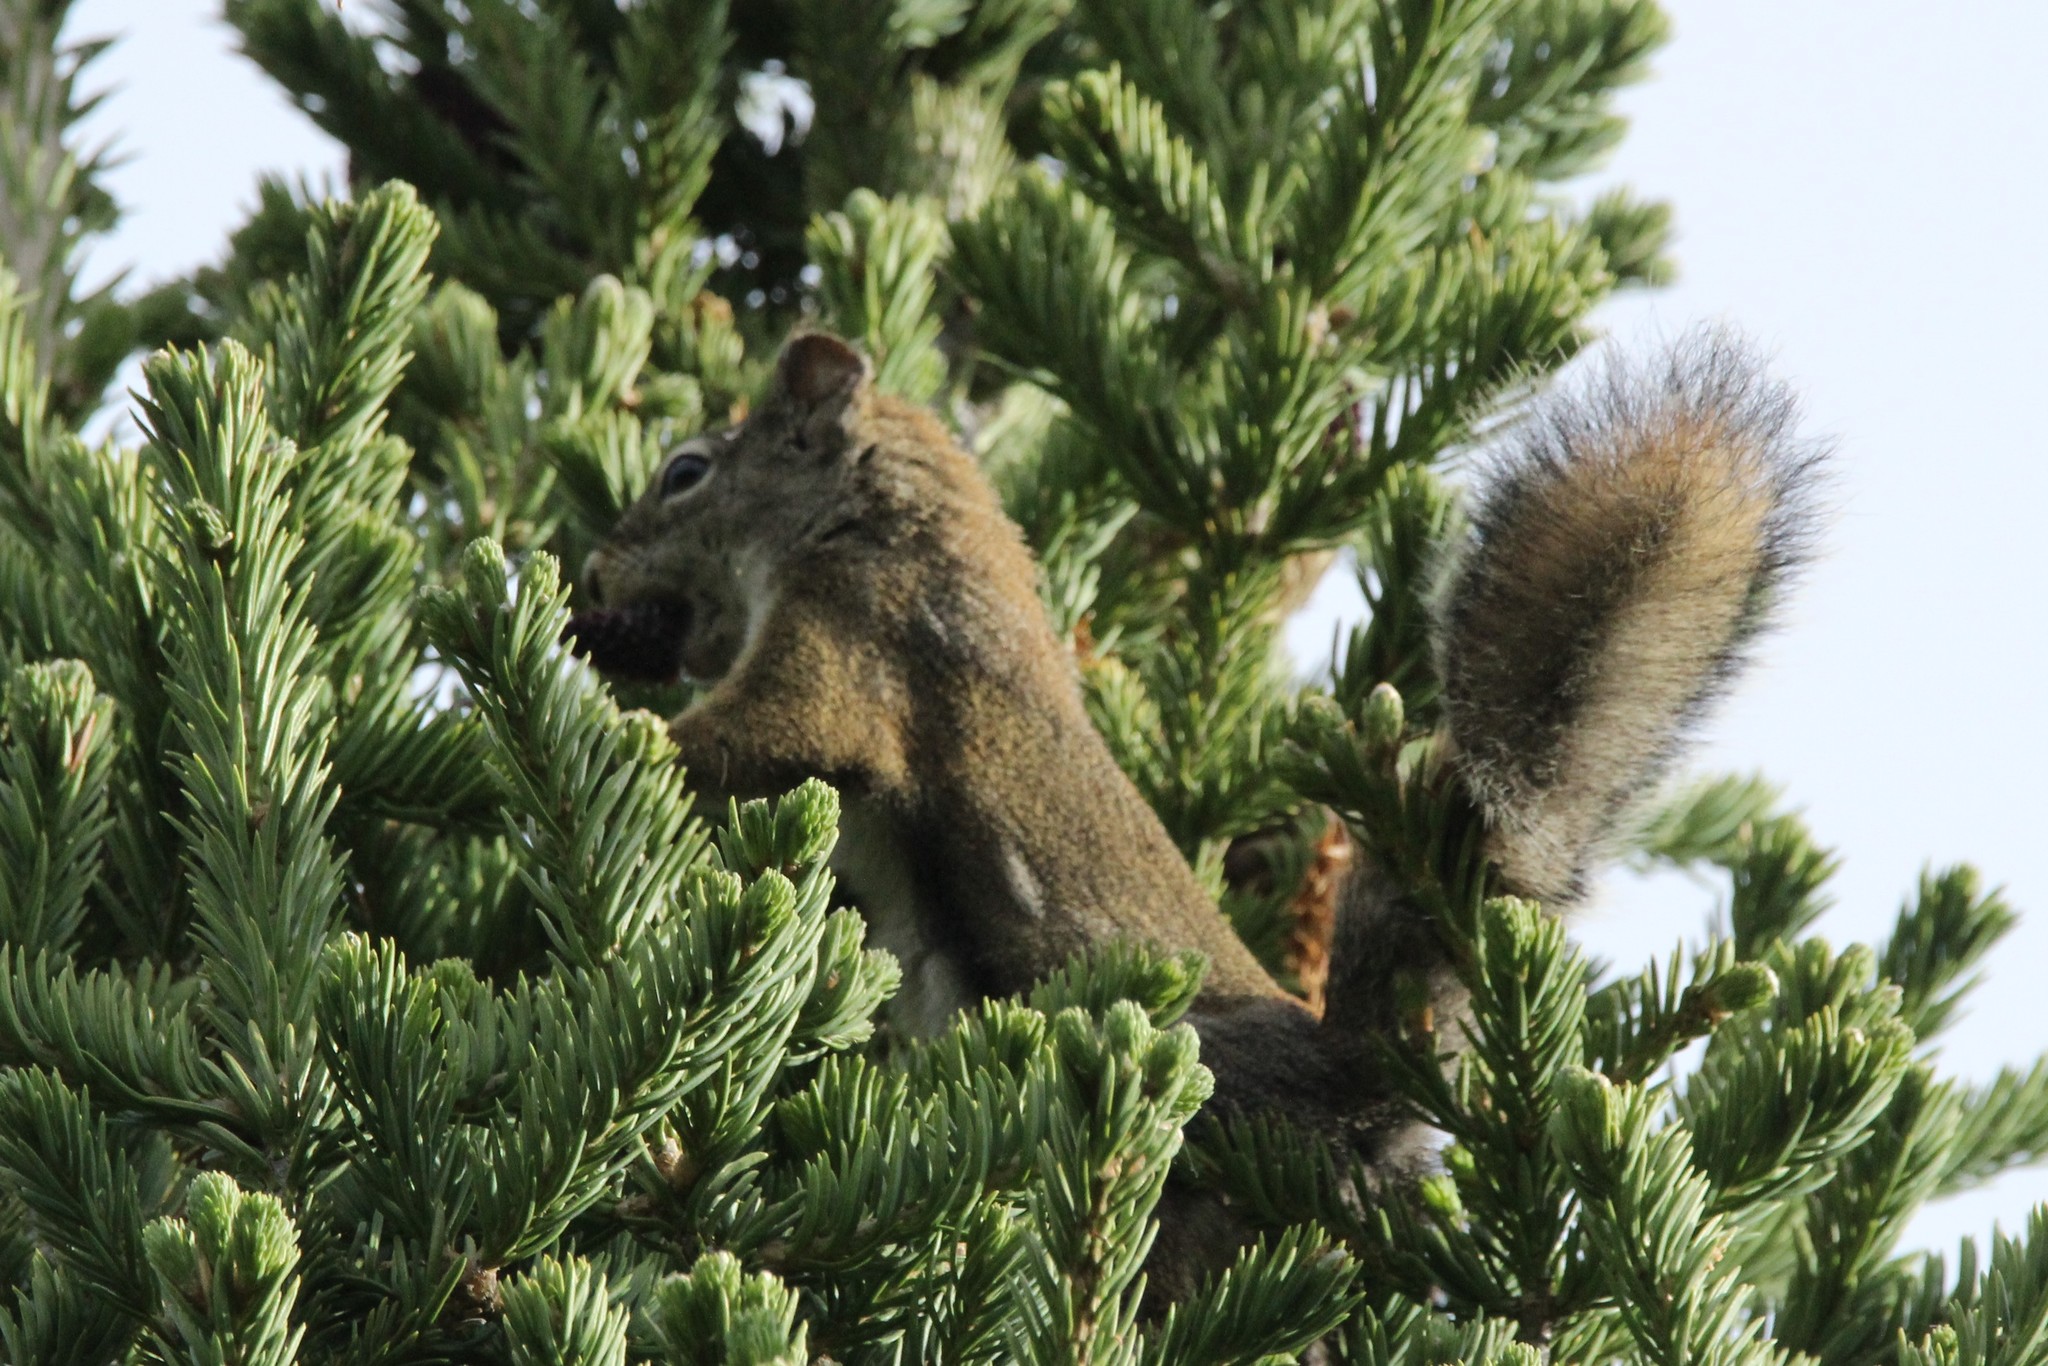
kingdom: Animalia
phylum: Chordata
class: Mammalia
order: Rodentia
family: Sciuridae
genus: Tamiasciurus
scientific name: Tamiasciurus hudsonicus
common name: Red squirrel
